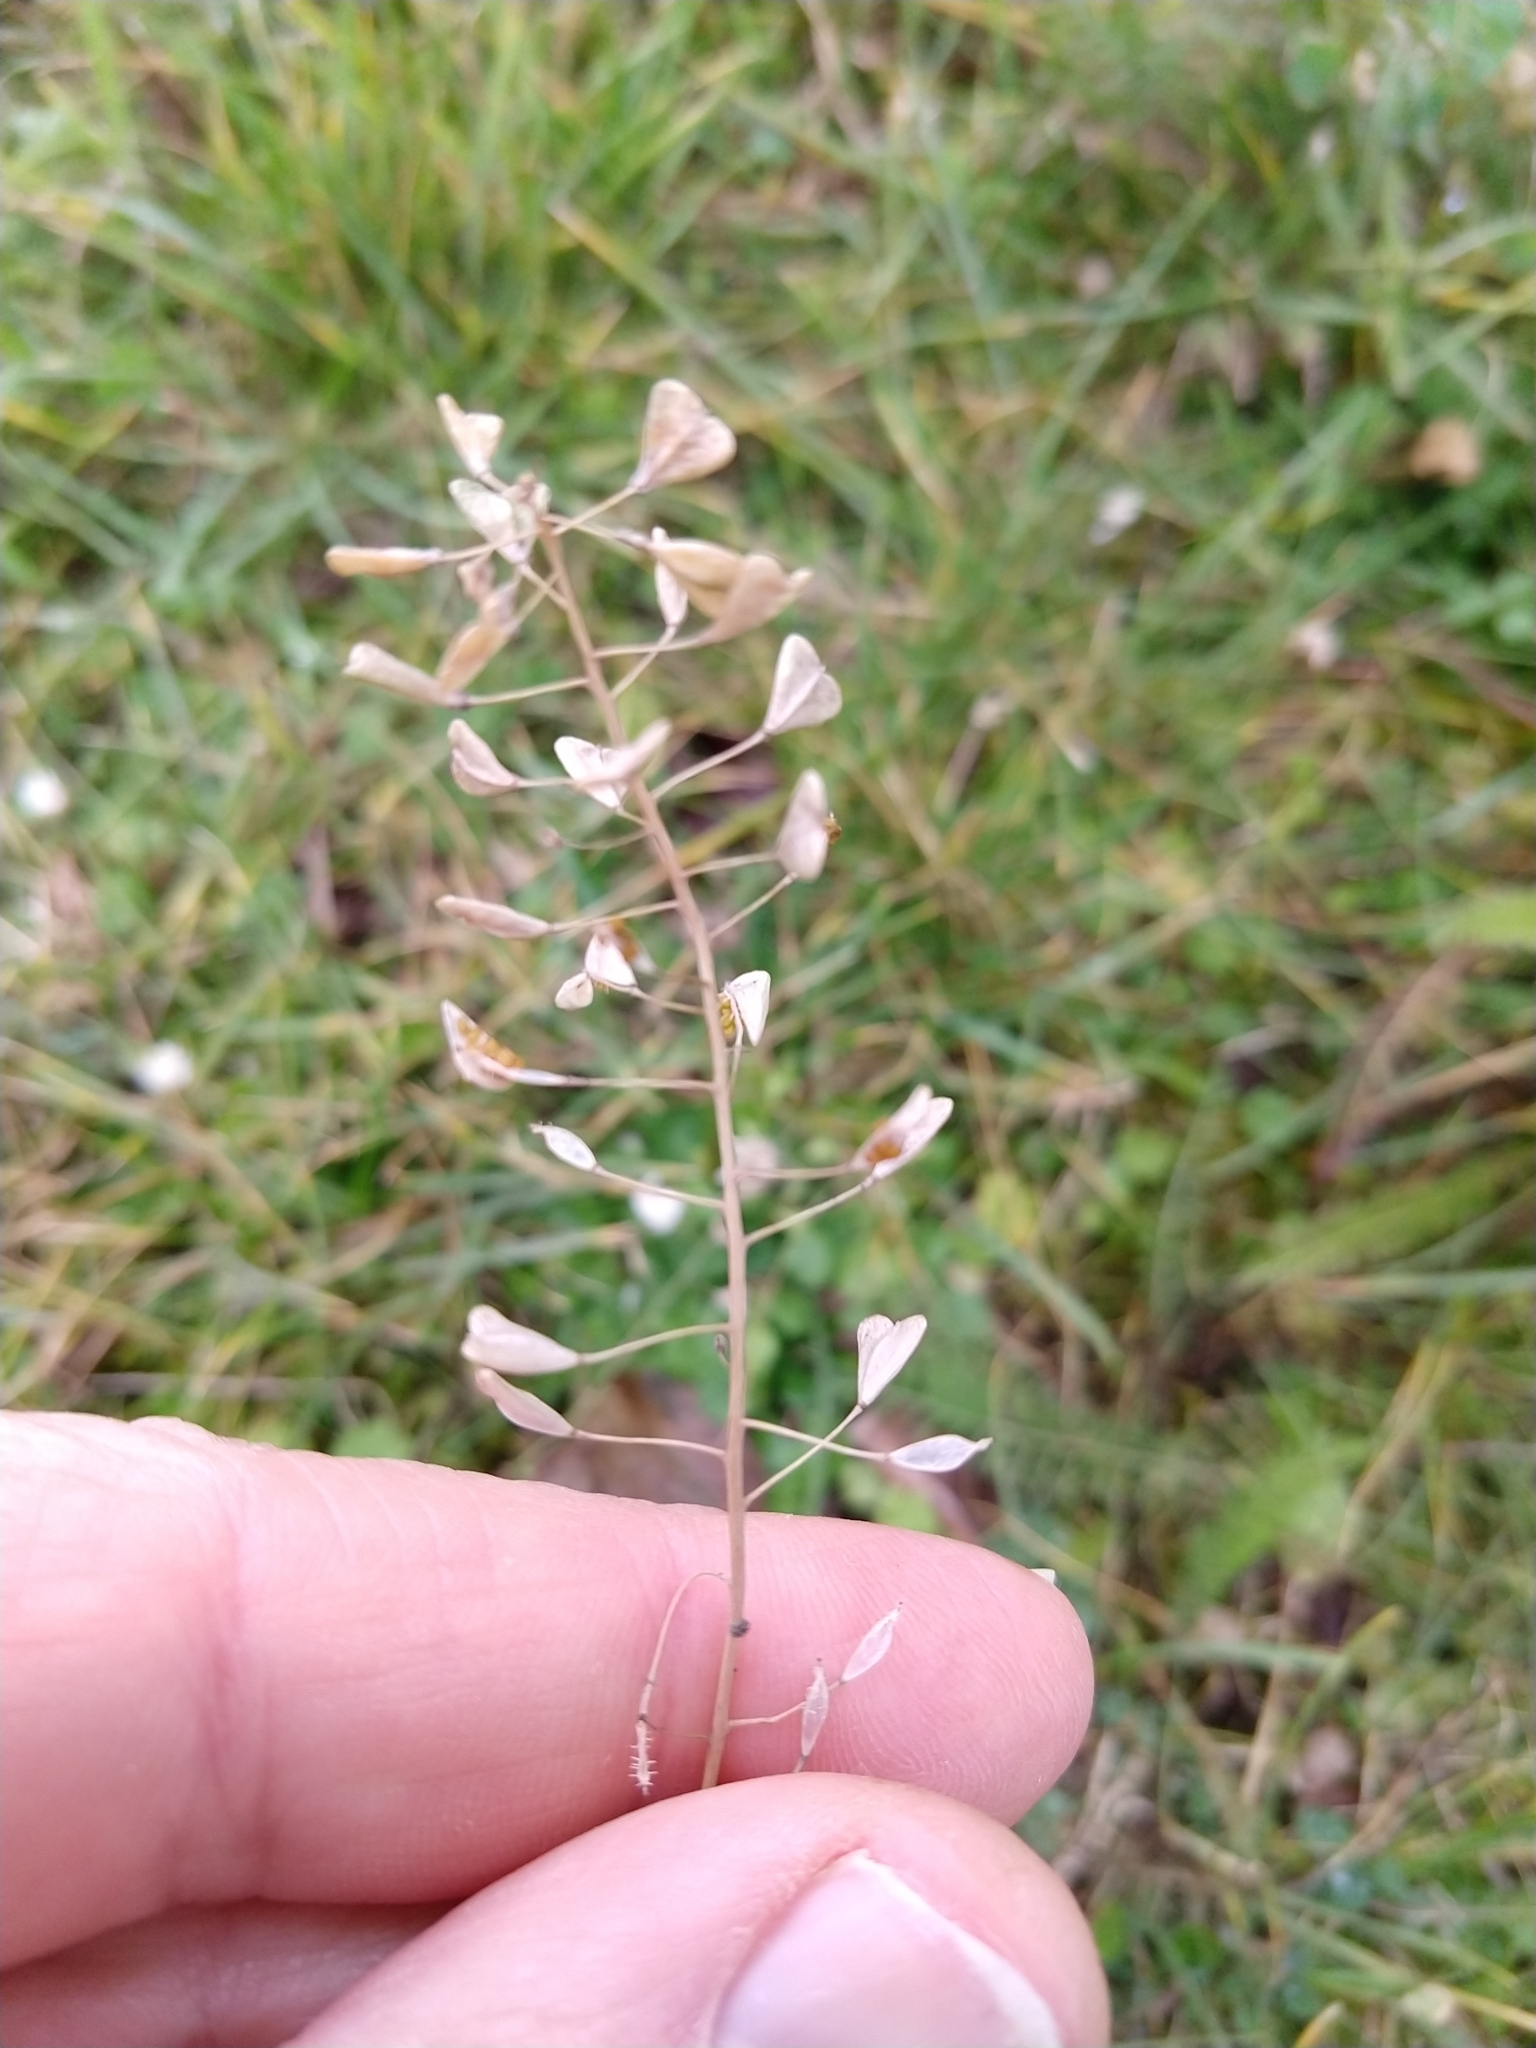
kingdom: Plantae
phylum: Tracheophyta
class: Magnoliopsida
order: Brassicales
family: Brassicaceae
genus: Capsella
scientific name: Capsella bursa-pastoris
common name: Shepherd's purse
